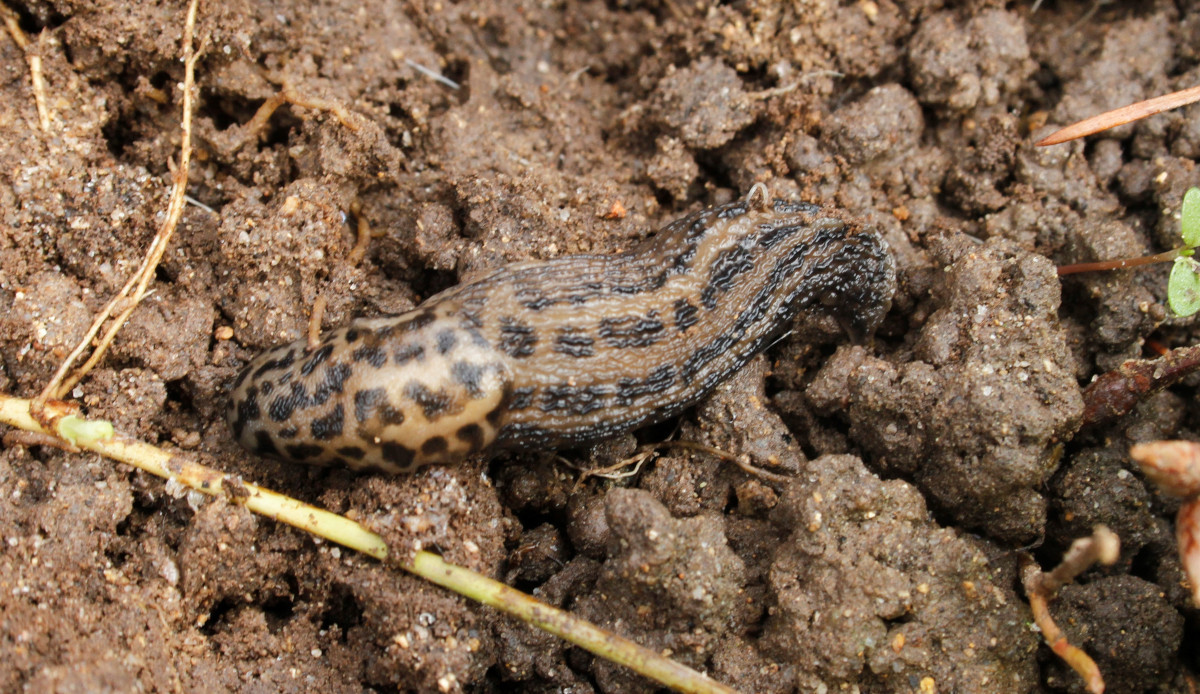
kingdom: Animalia
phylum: Mollusca
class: Gastropoda
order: Stylommatophora
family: Limacidae
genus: Limax
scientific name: Limax maximus
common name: Great grey slug
